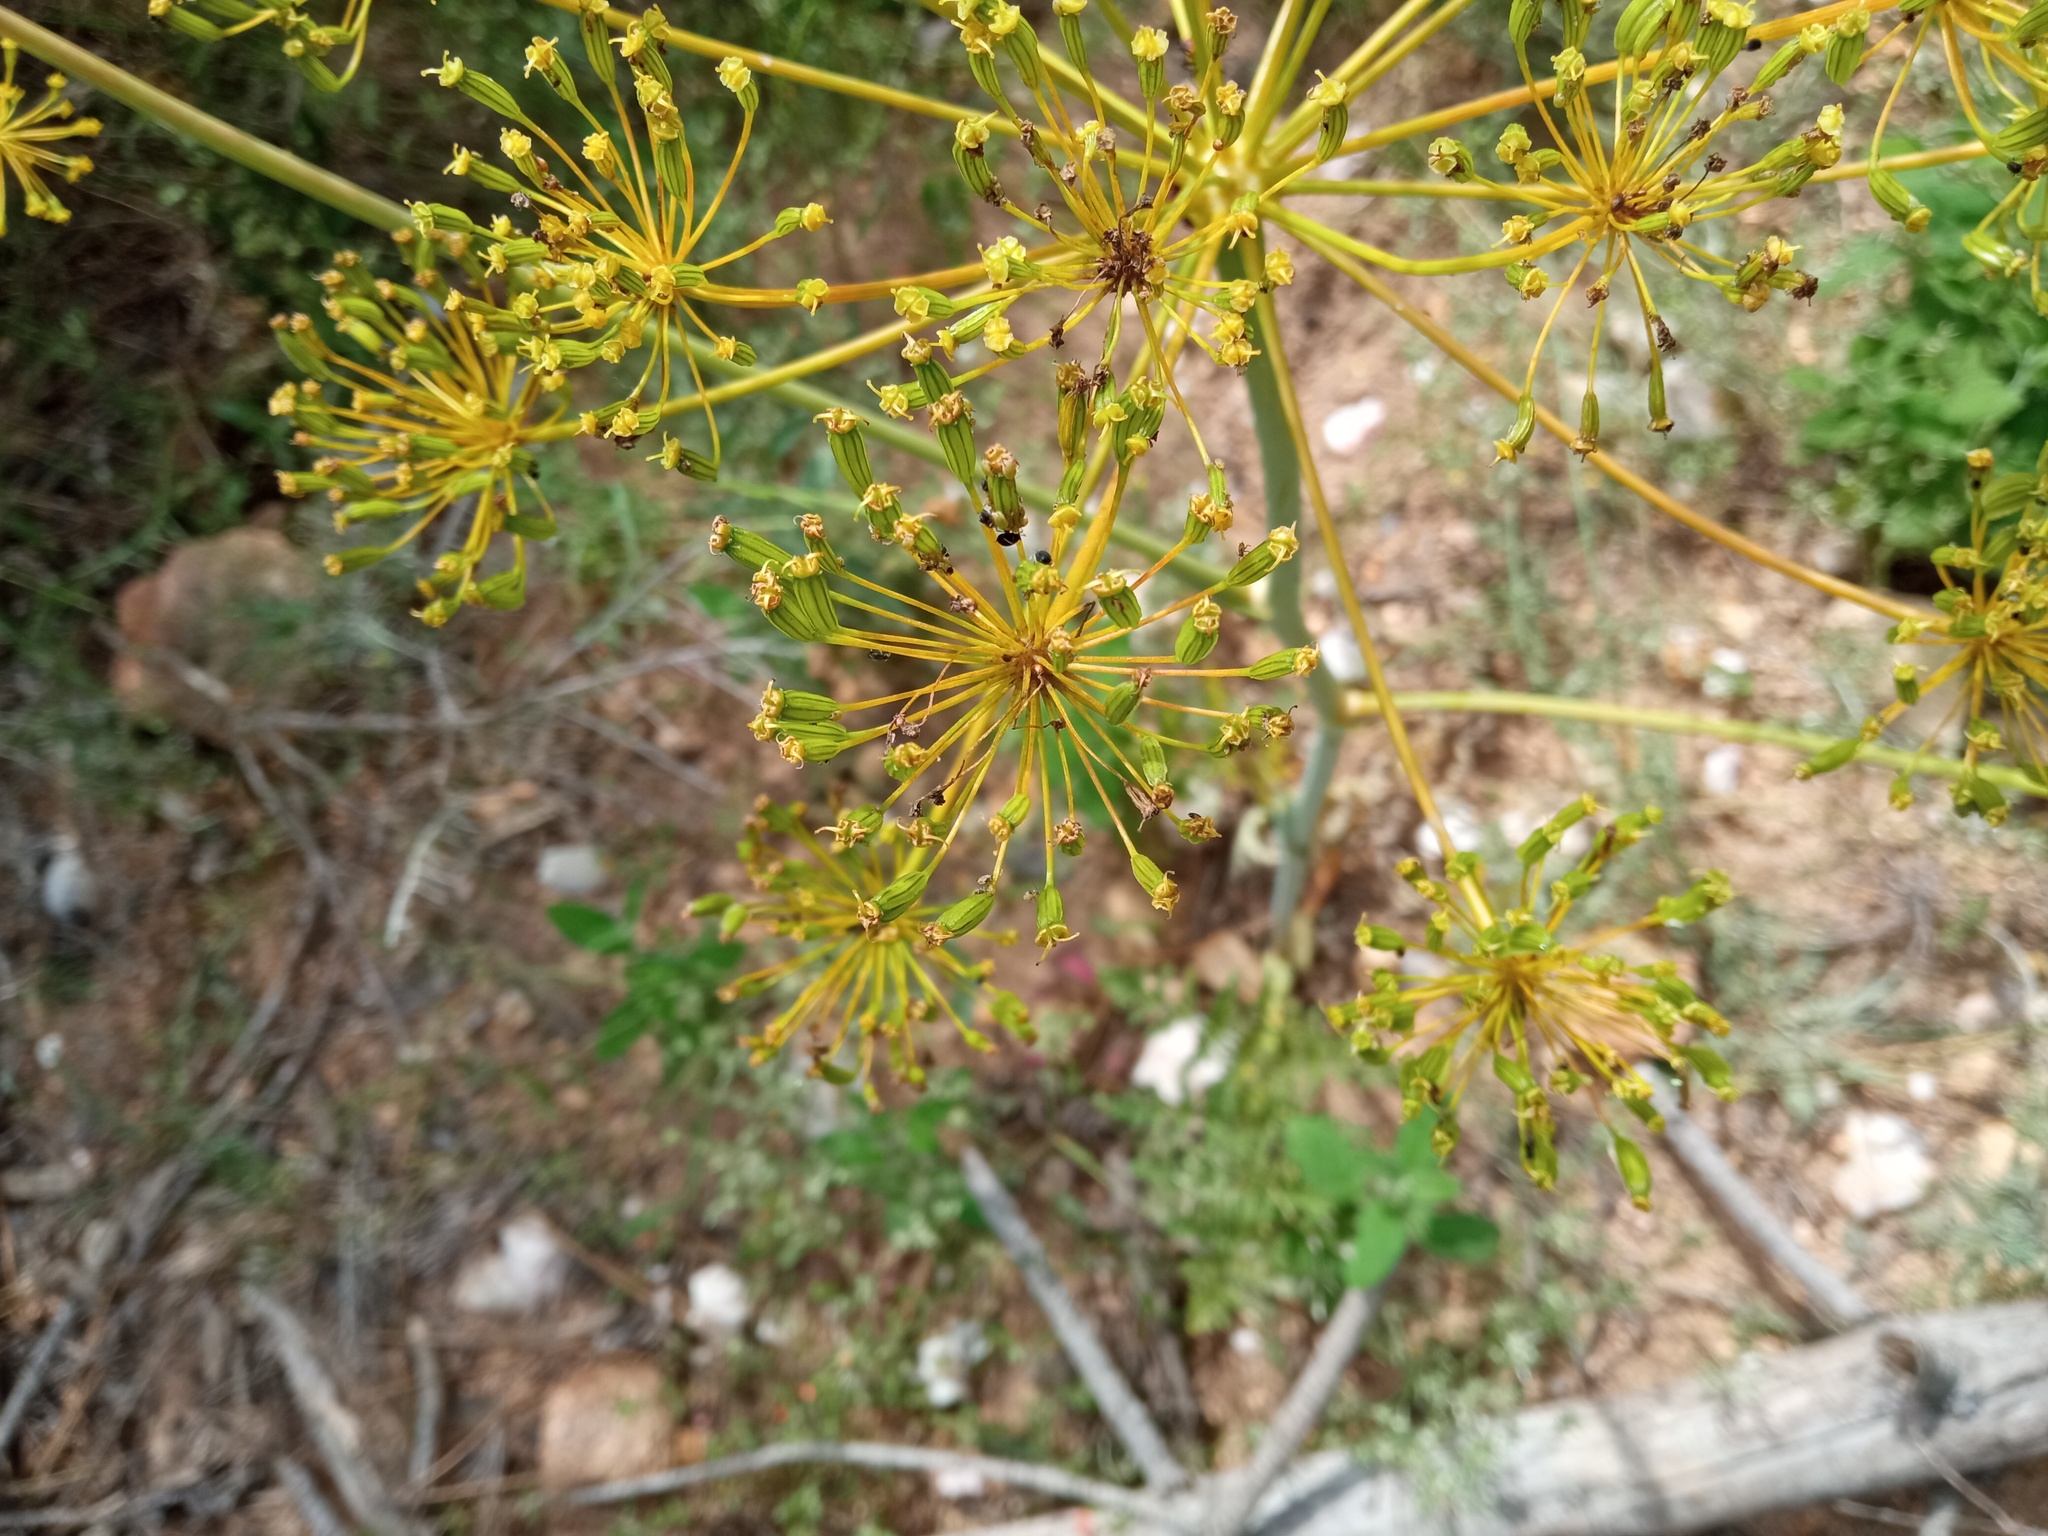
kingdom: Plantae
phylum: Tracheophyta
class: Magnoliopsida
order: Apiales
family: Apiaceae
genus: Thapsia
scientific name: Thapsia villosa
